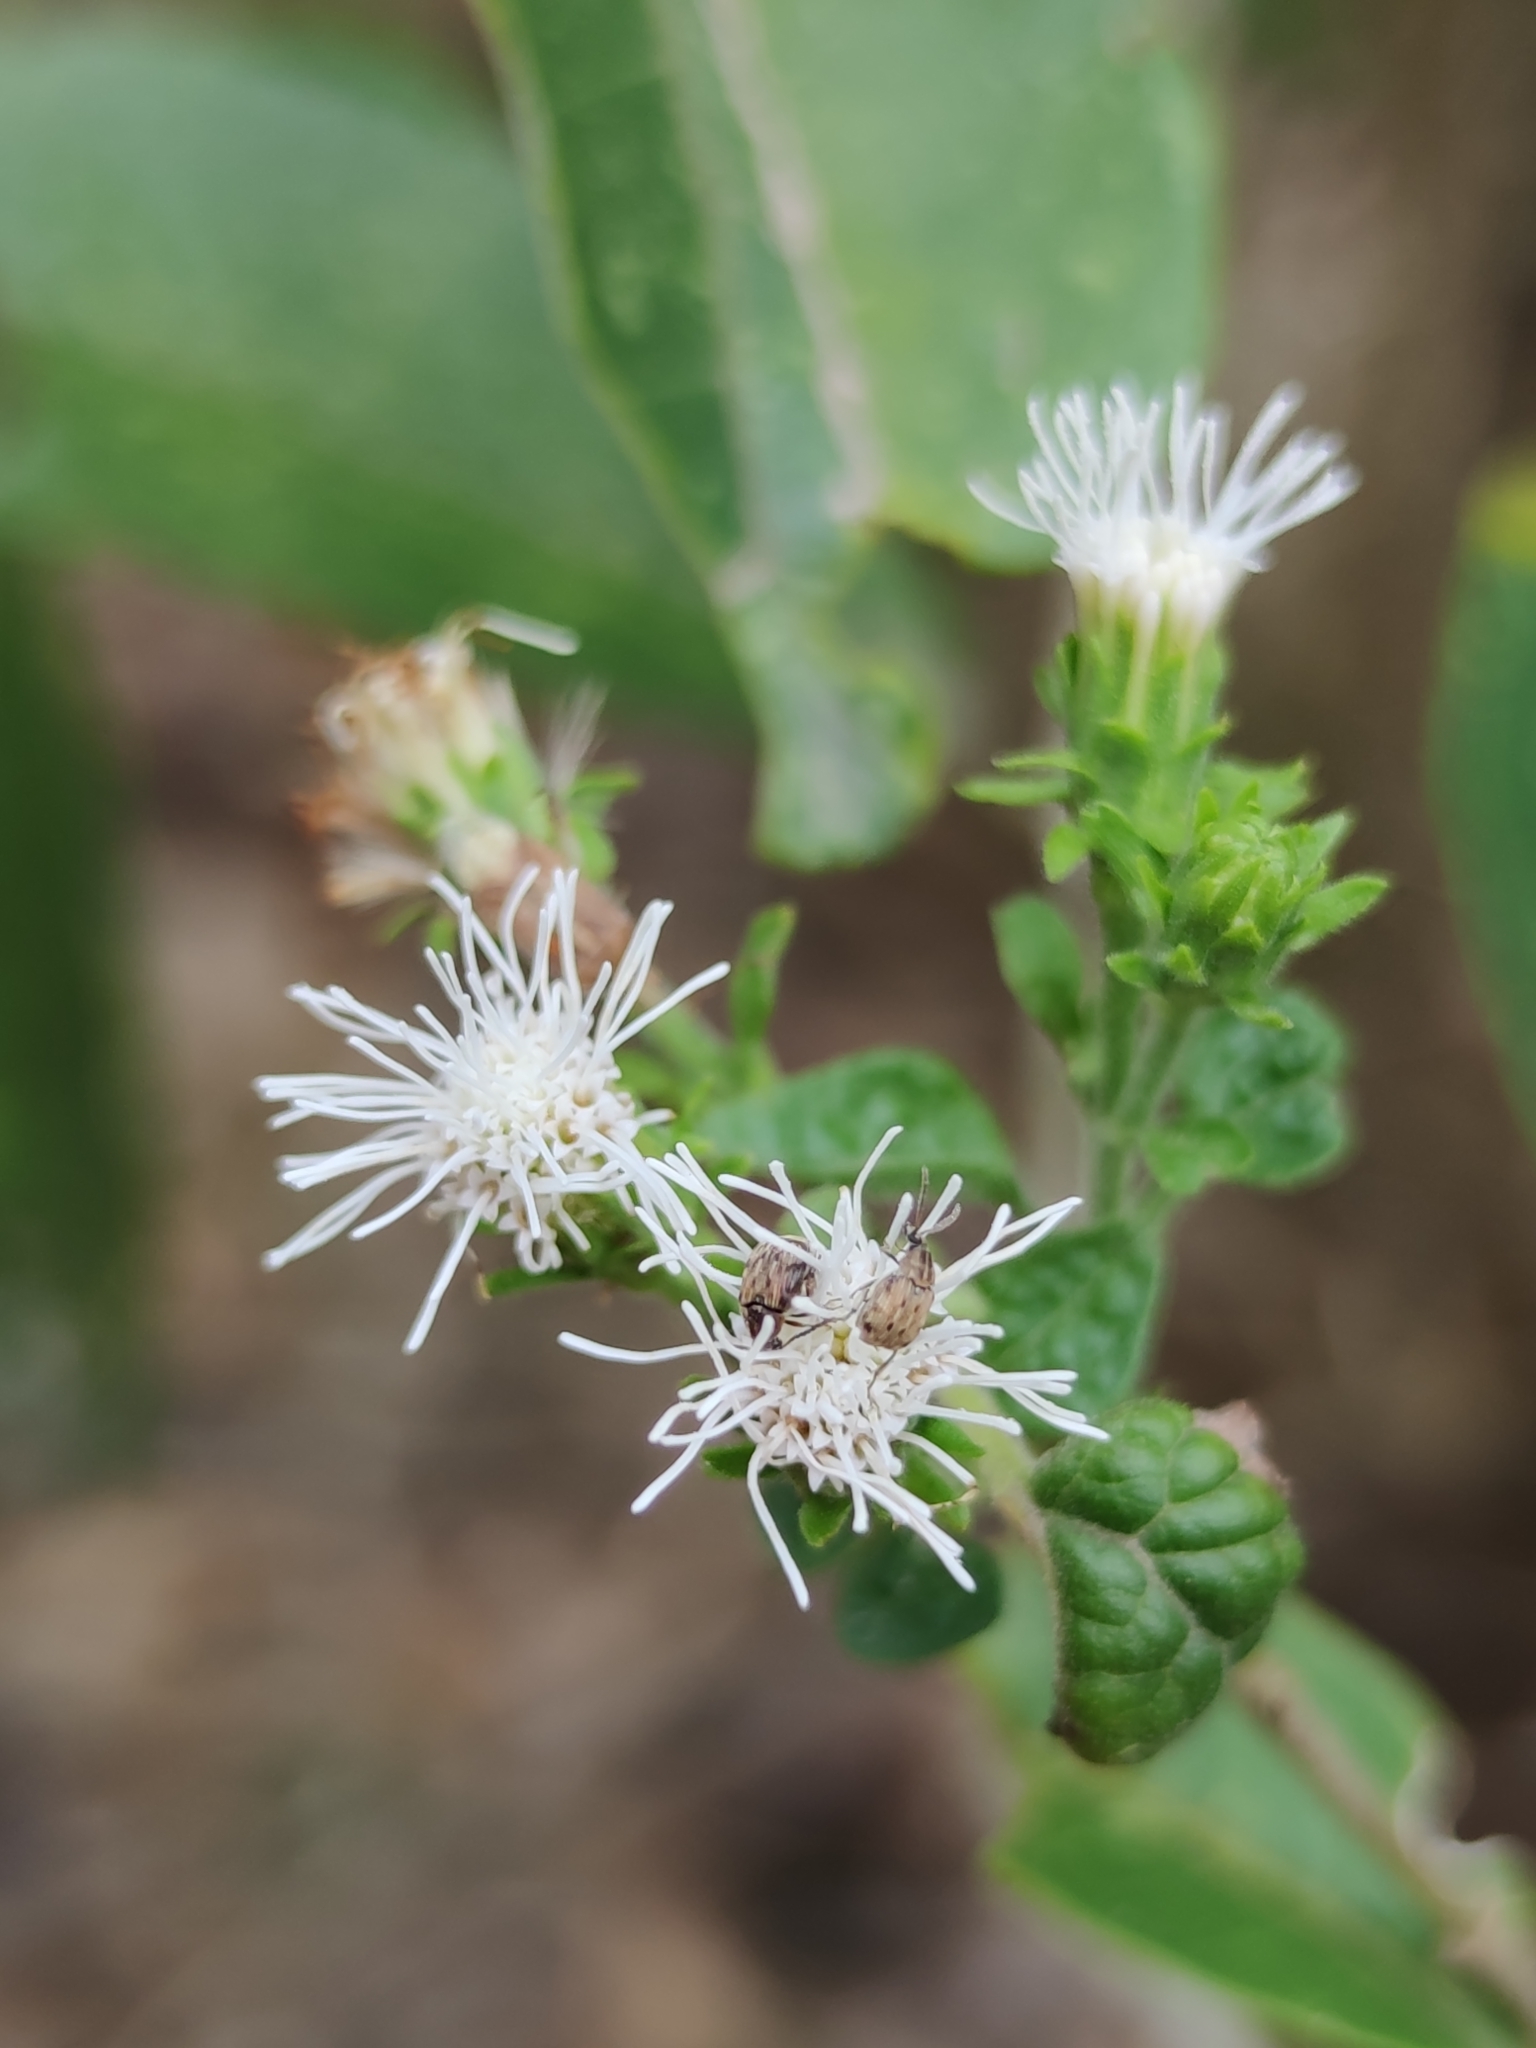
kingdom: Plantae
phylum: Tracheophyta
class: Magnoliopsida
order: Asterales
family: Asteraceae
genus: Tamaulipa
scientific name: Tamaulipa azurea
